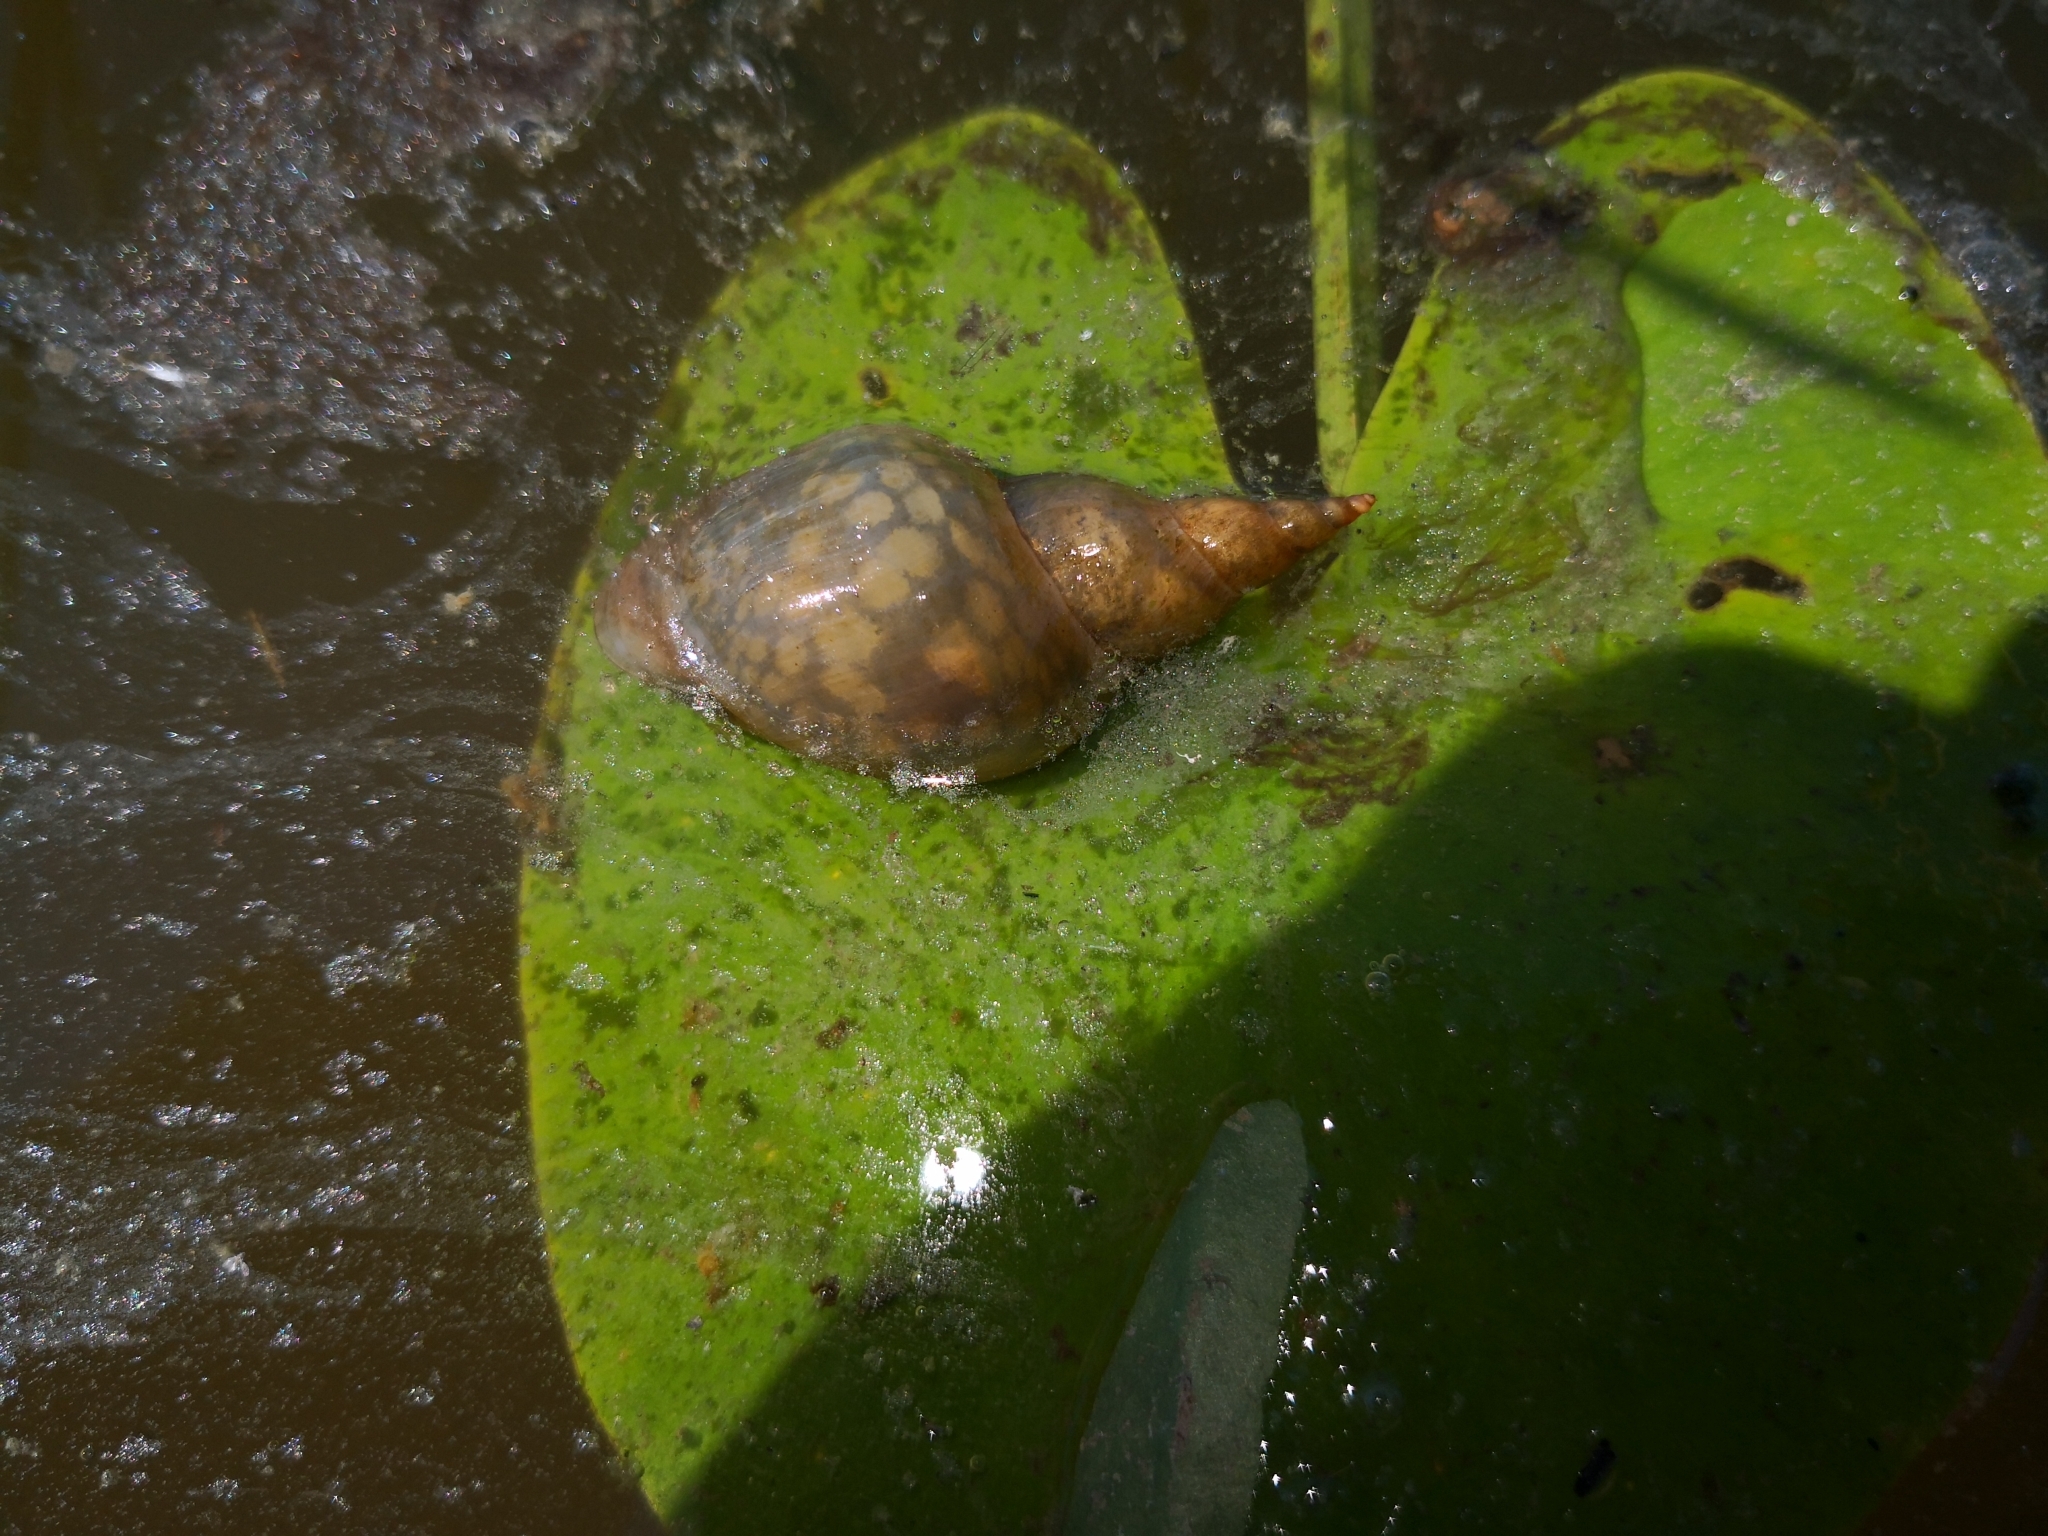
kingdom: Animalia
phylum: Mollusca
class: Gastropoda
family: Lymnaeidae
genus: Lymnaea
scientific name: Lymnaea stagnalis
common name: Great pond snail
